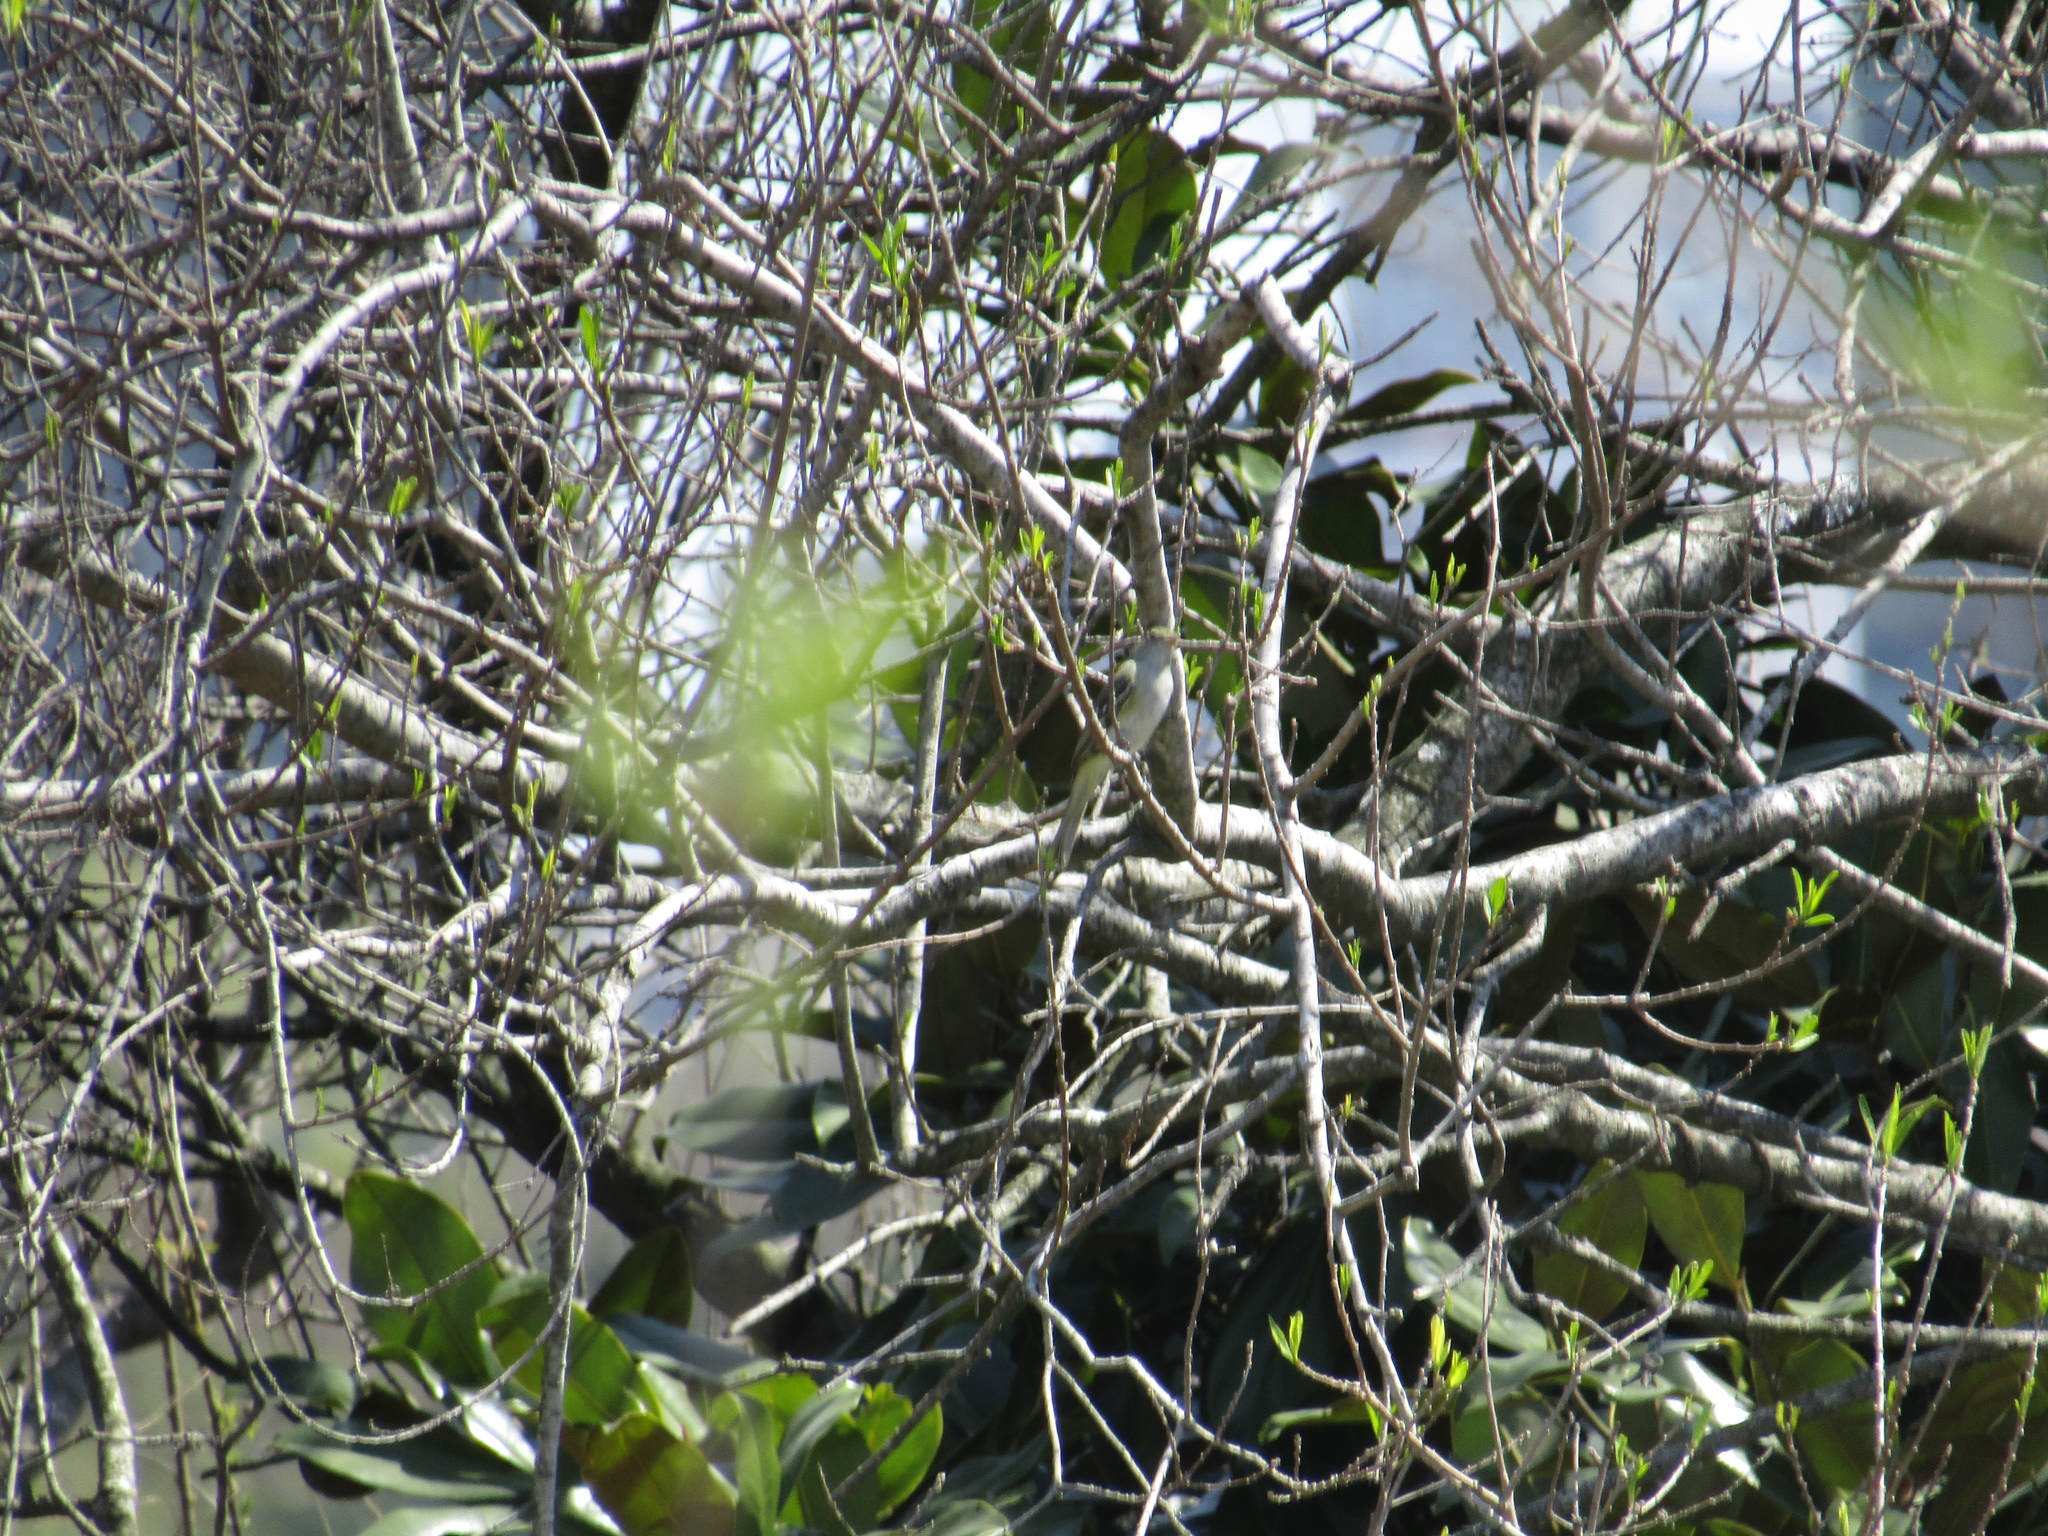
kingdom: Animalia
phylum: Chordata
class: Aves
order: Passeriformes
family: Tyrannidae
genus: Elaenia
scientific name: Elaenia parvirostris
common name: Small-billed elaenia
